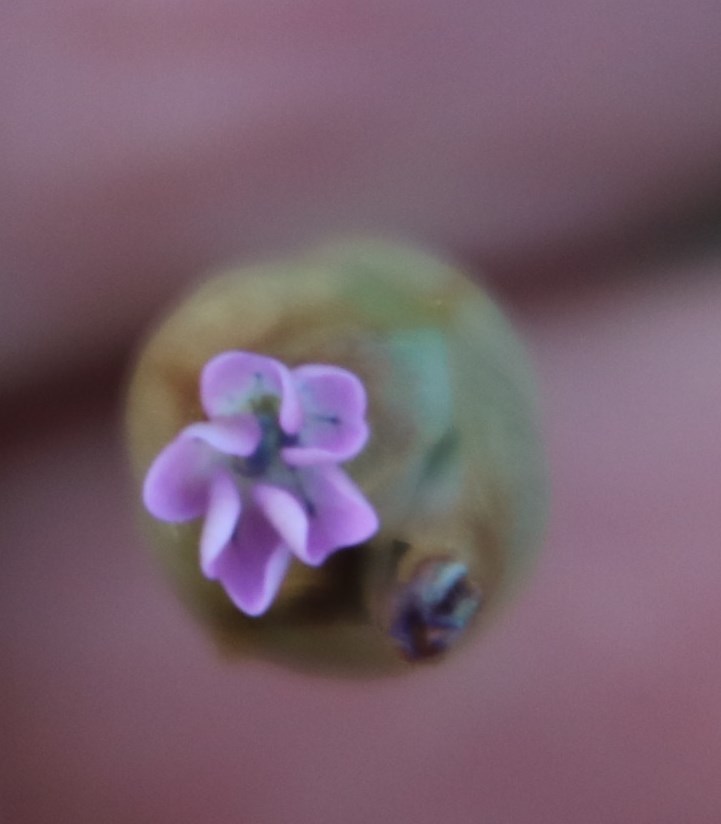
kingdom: Plantae
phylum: Tracheophyta
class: Magnoliopsida
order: Caryophyllales
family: Caryophyllaceae
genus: Petrorhagia
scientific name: Petrorhagia prolifera
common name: Proliferous pink
